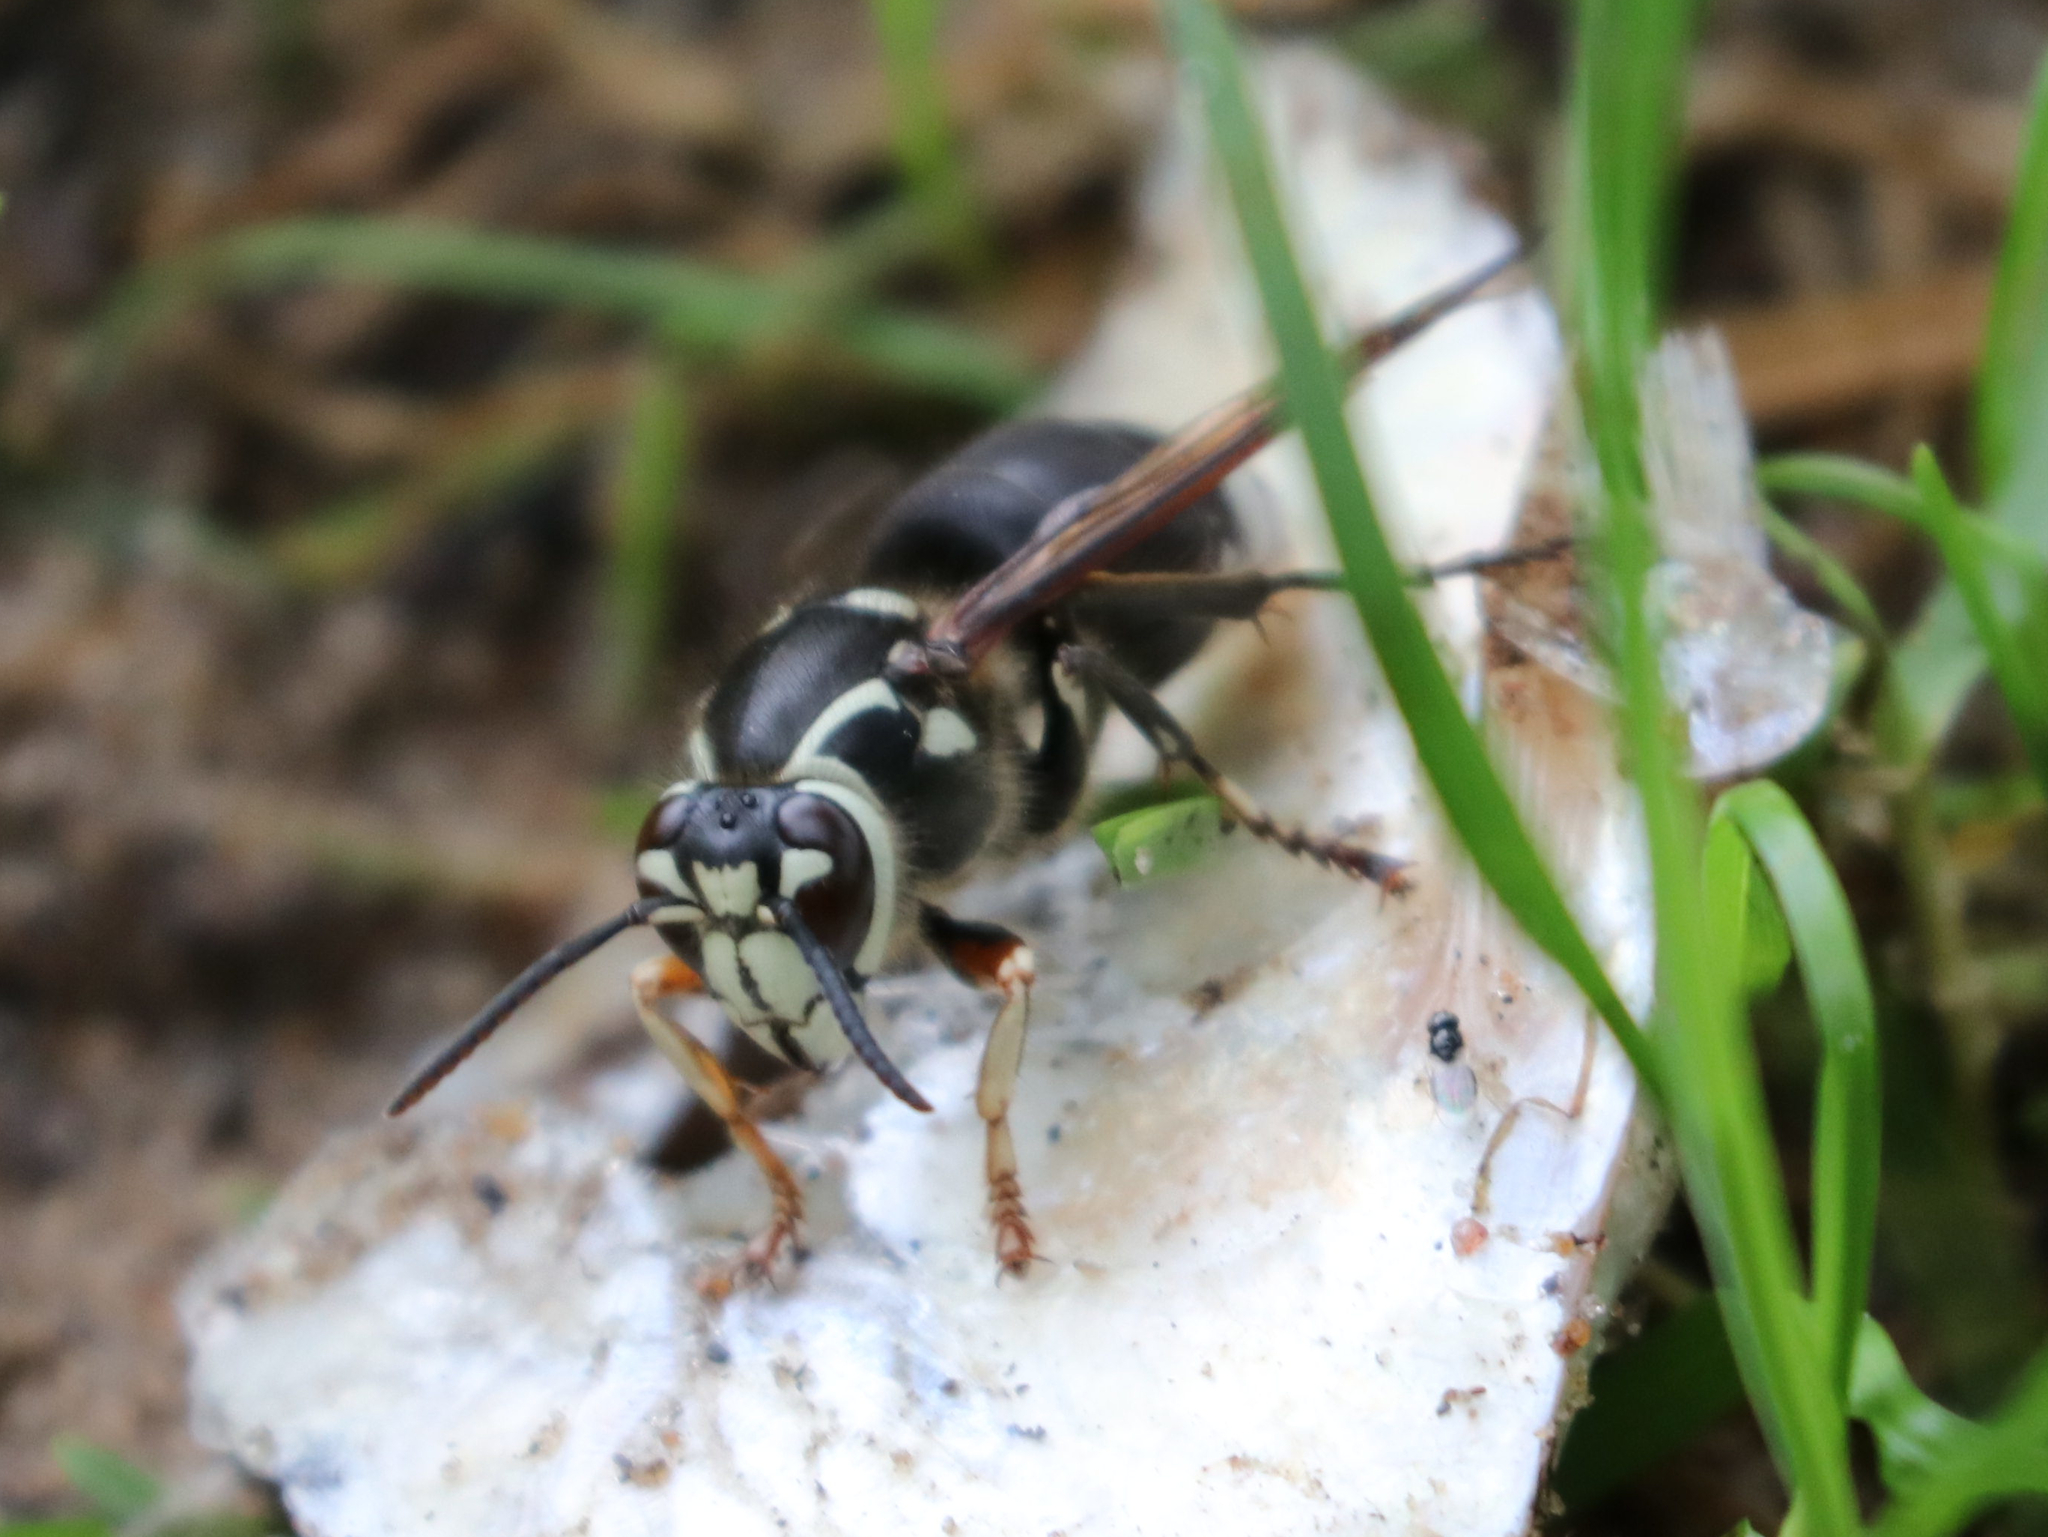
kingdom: Animalia
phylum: Arthropoda
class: Insecta
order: Hymenoptera
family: Vespidae
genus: Dolichovespula
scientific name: Dolichovespula maculata
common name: Bald-faced hornet
